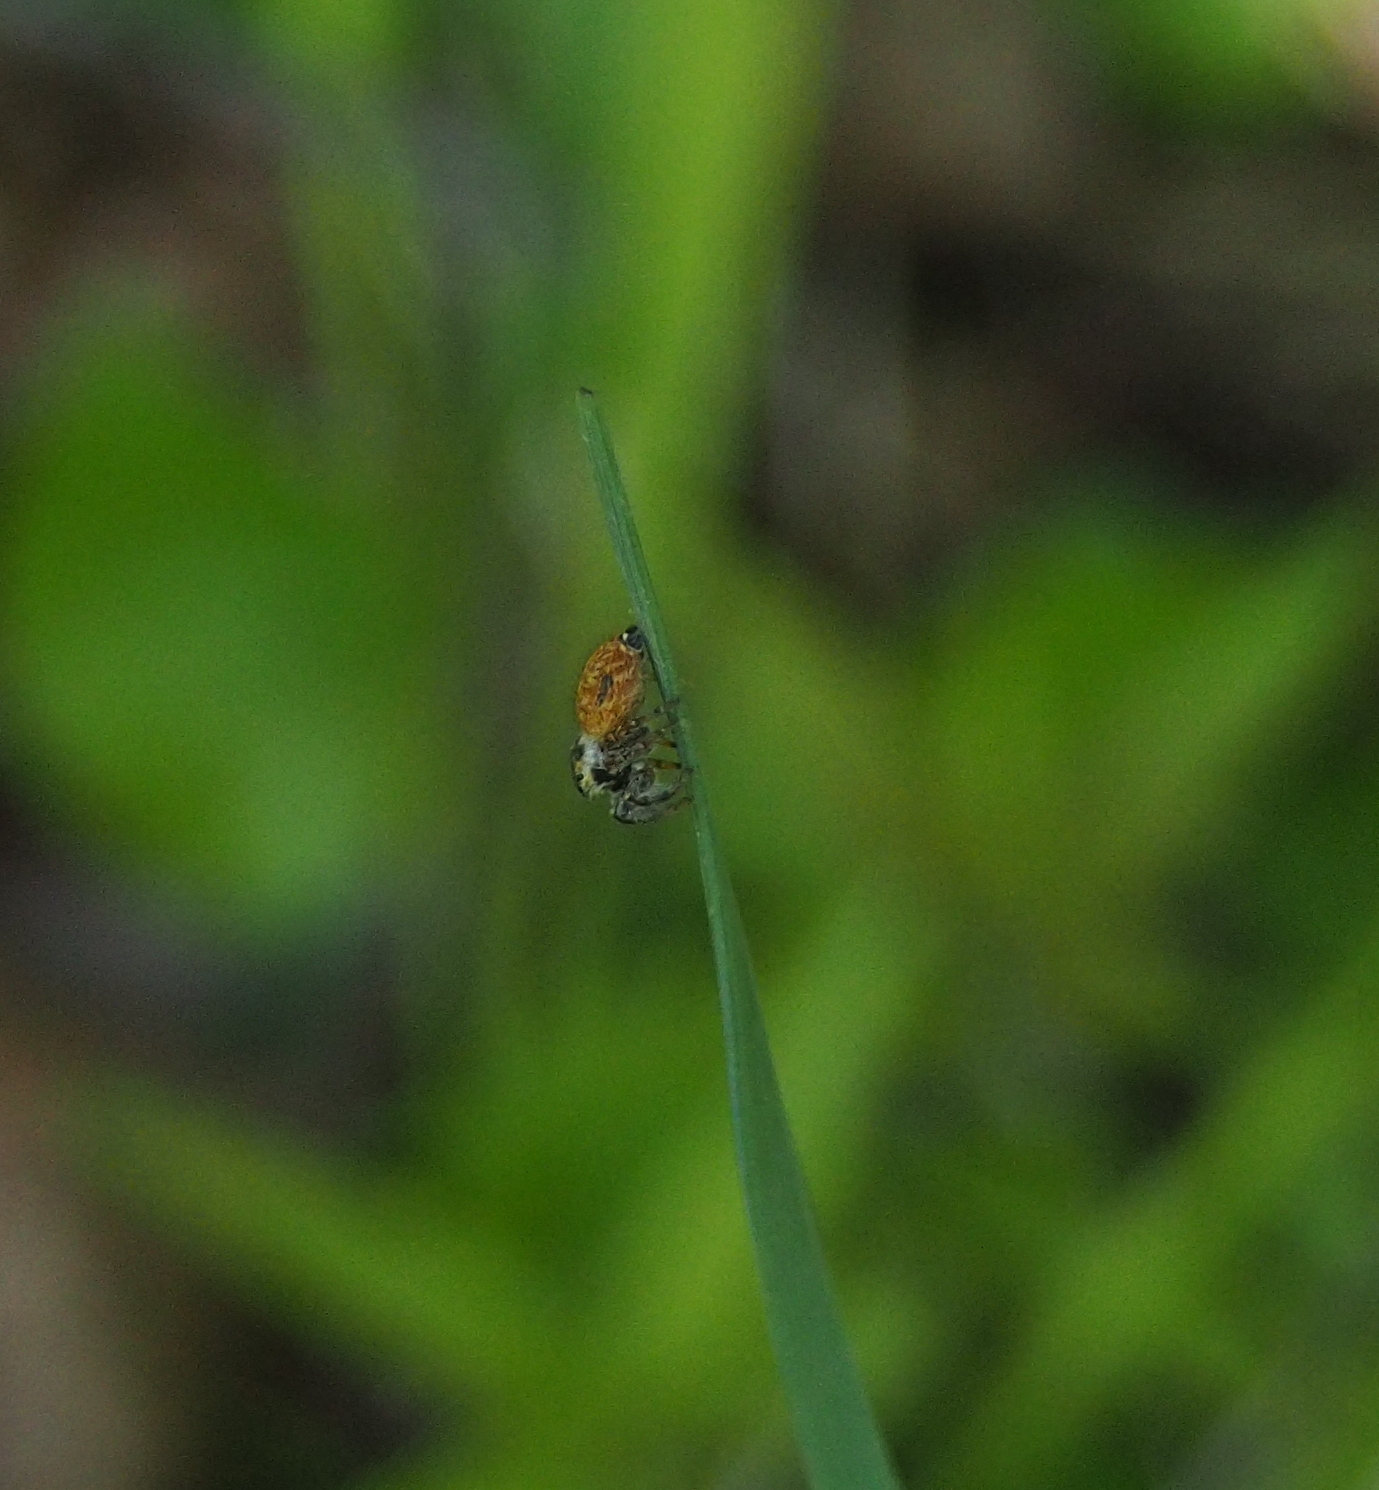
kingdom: Animalia
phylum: Arthropoda
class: Arachnida
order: Araneae
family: Salticidae
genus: Carrhotus
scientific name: Carrhotus xanthogramma
